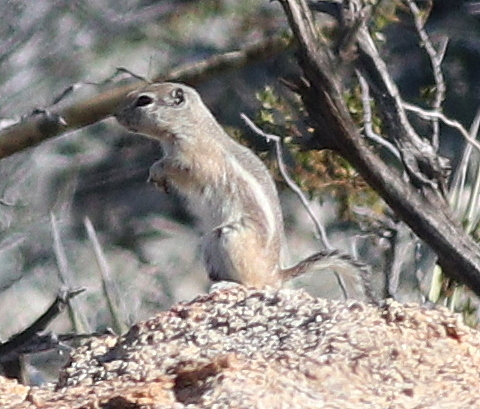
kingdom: Animalia
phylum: Chordata
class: Mammalia
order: Rodentia
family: Sciuridae
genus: Ammospermophilus
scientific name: Ammospermophilus leucurus
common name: White-tailed antelope squirrel
